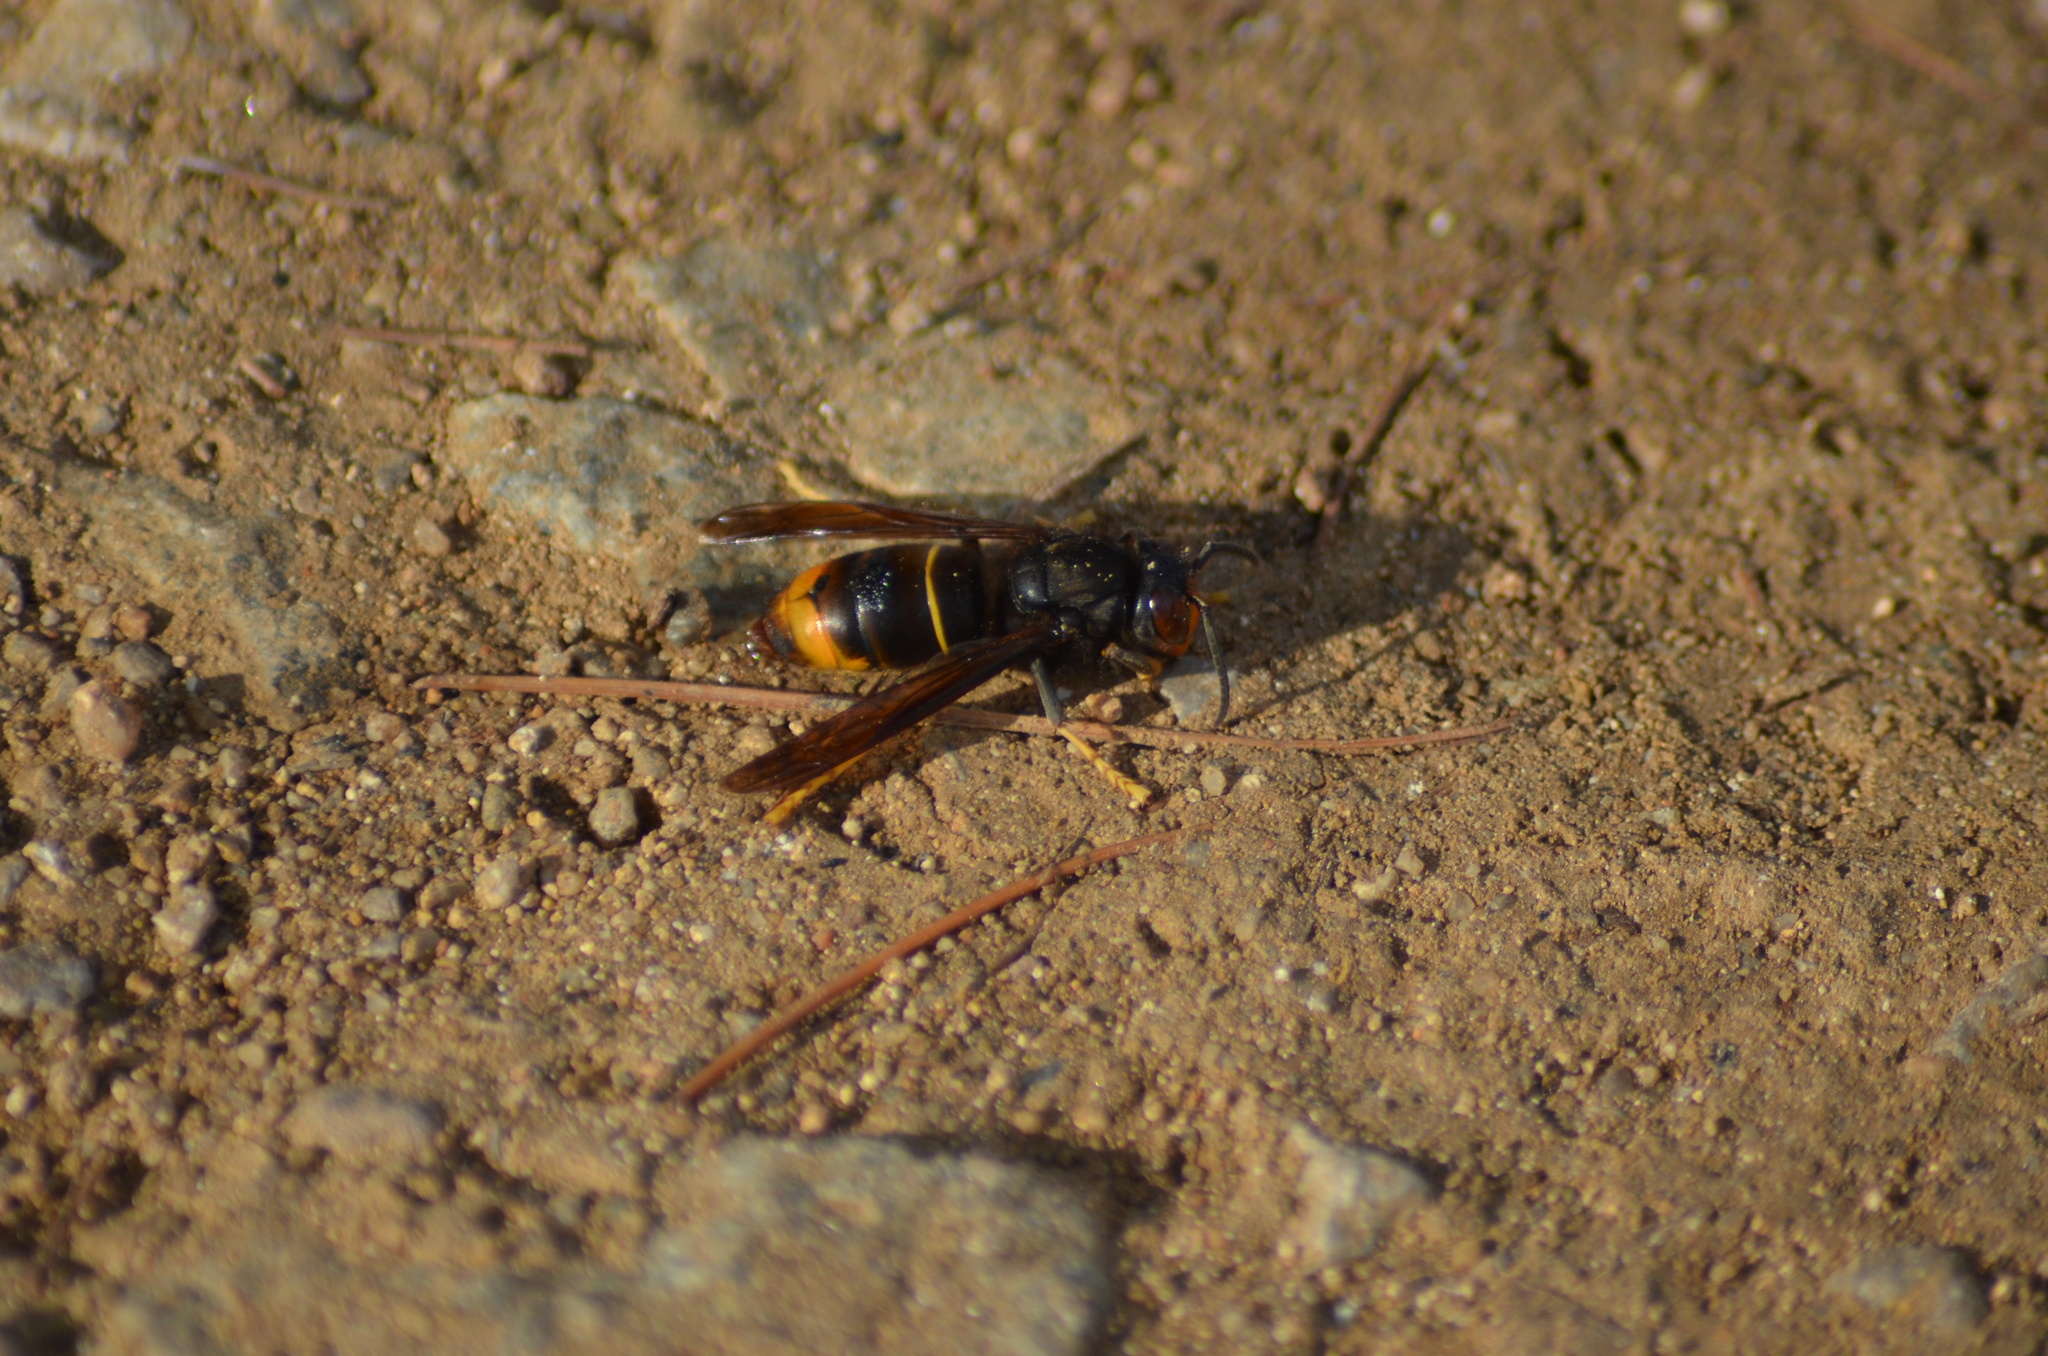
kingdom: Animalia
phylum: Arthropoda
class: Insecta
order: Hymenoptera
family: Vespidae
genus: Vespa
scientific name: Vespa velutina
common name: Asian hornet
